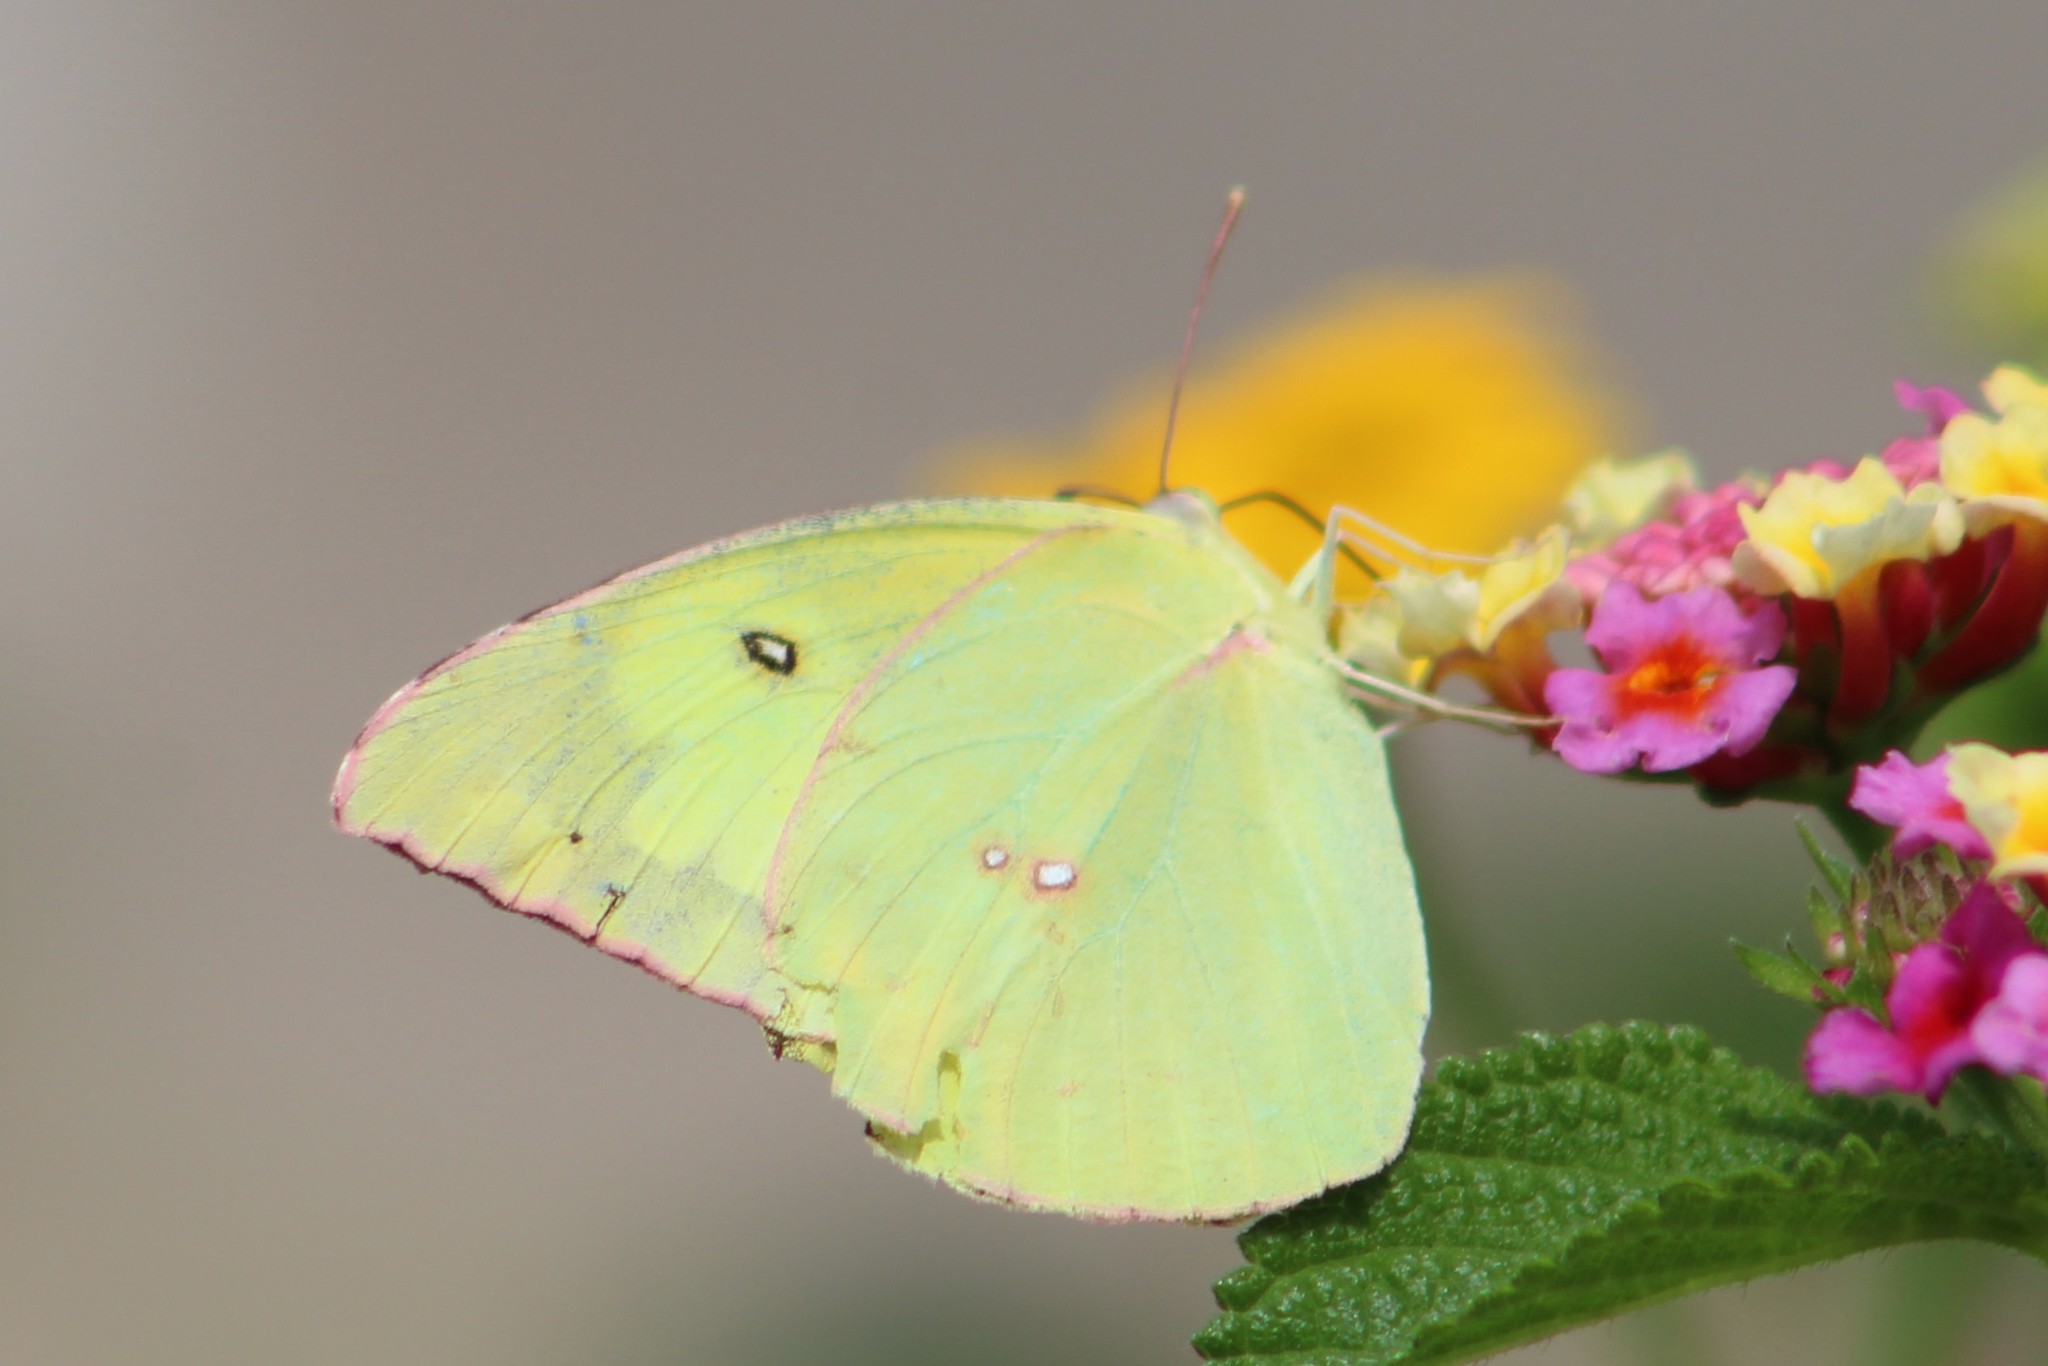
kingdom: Animalia
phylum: Arthropoda
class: Insecta
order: Lepidoptera
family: Pieridae
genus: Zerene
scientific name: Zerene cesonia
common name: Southern dogface
